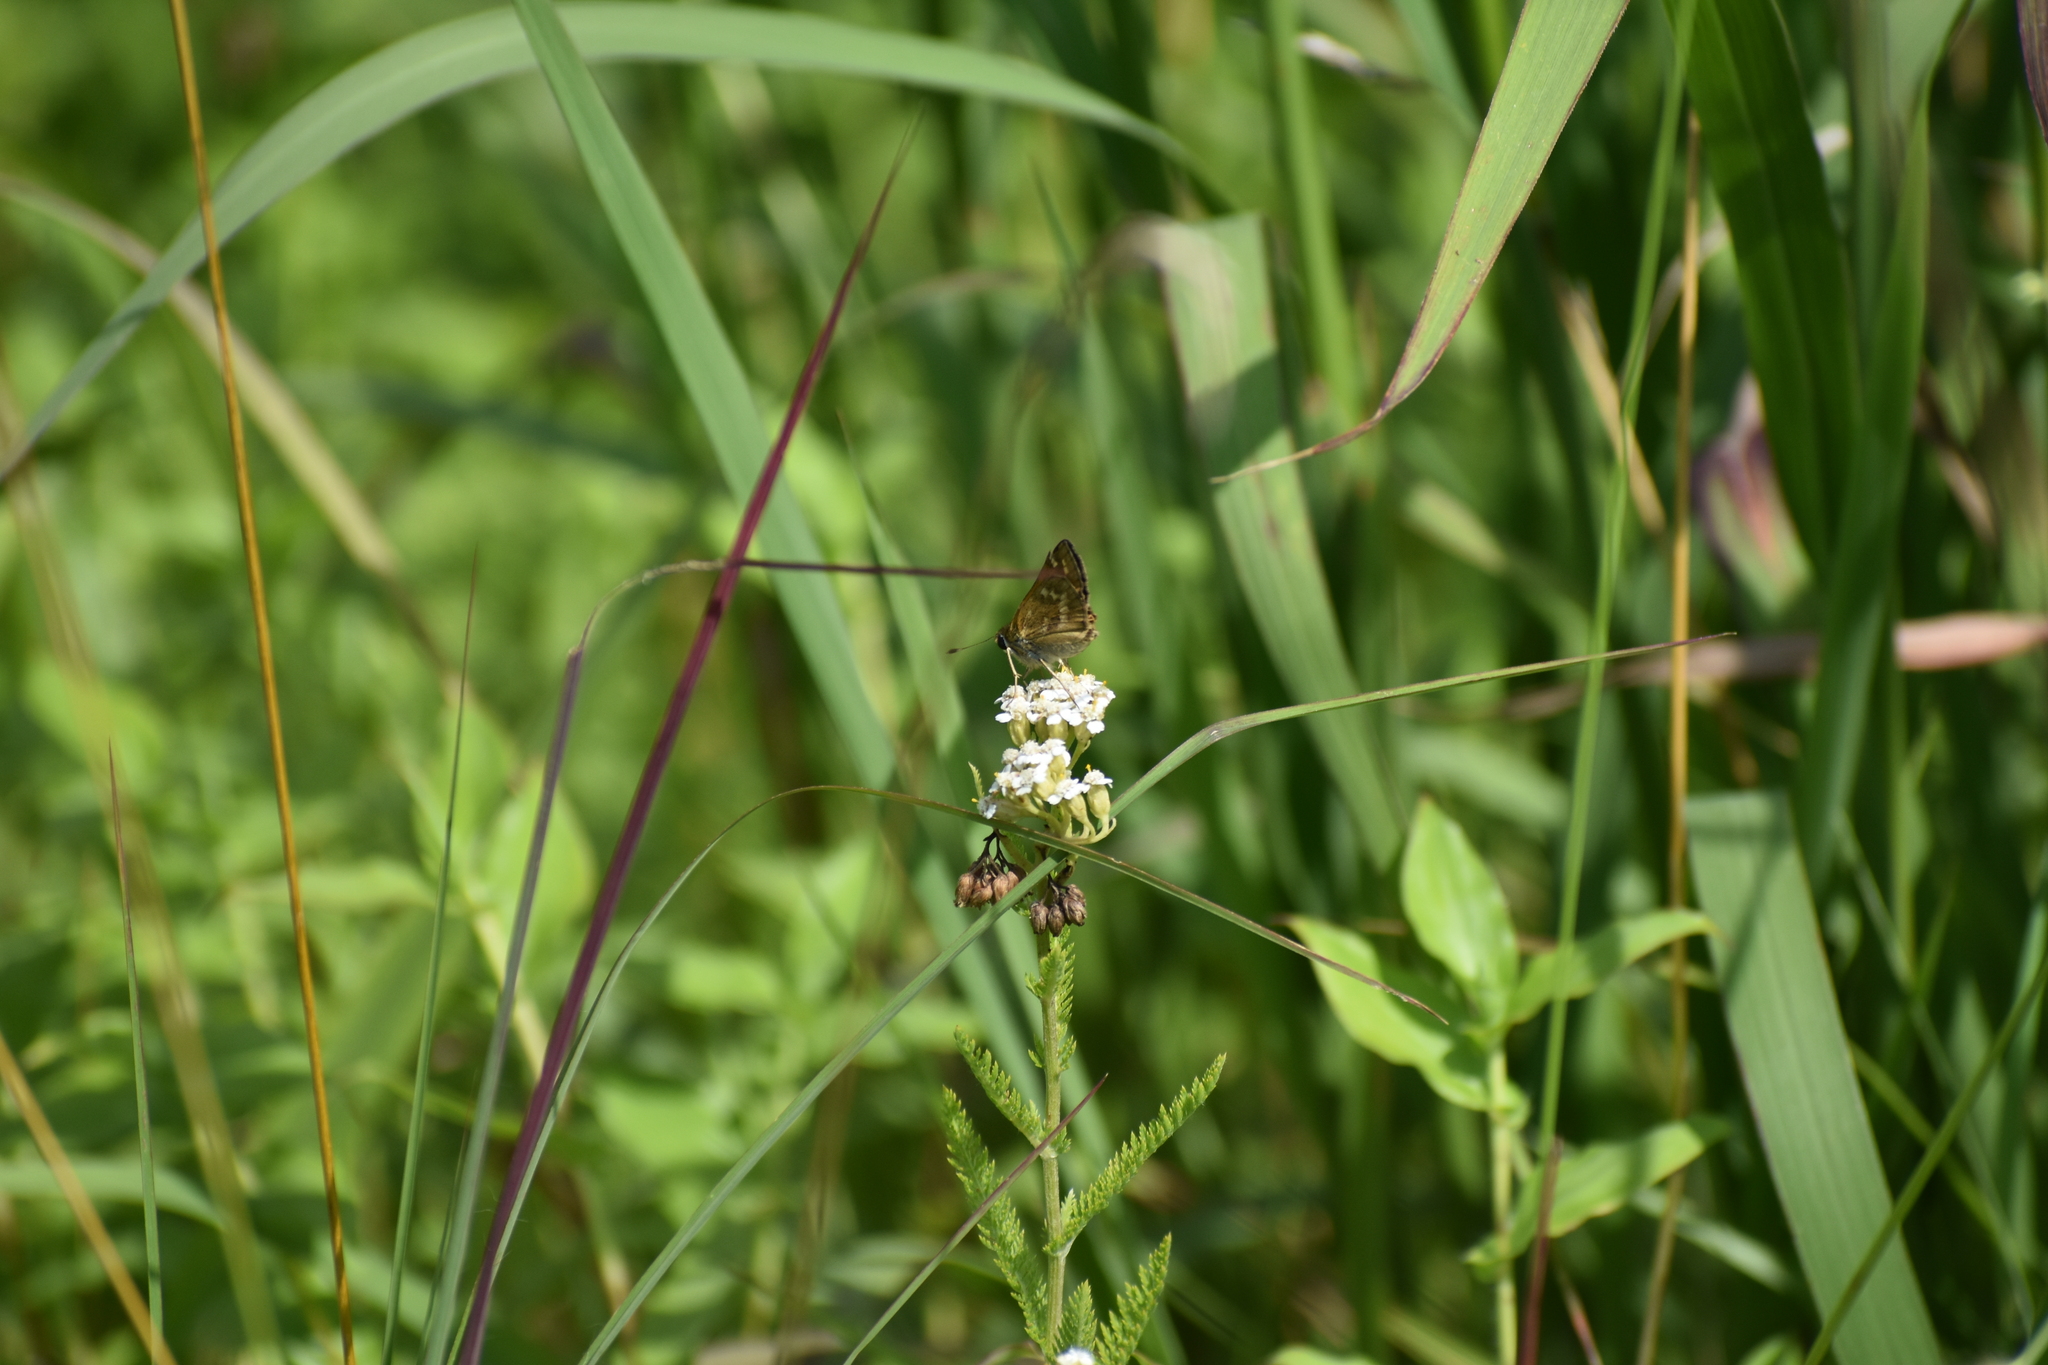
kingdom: Animalia
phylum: Arthropoda
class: Insecta
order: Lepidoptera
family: Hesperiidae
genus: Atalopedes
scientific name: Atalopedes
